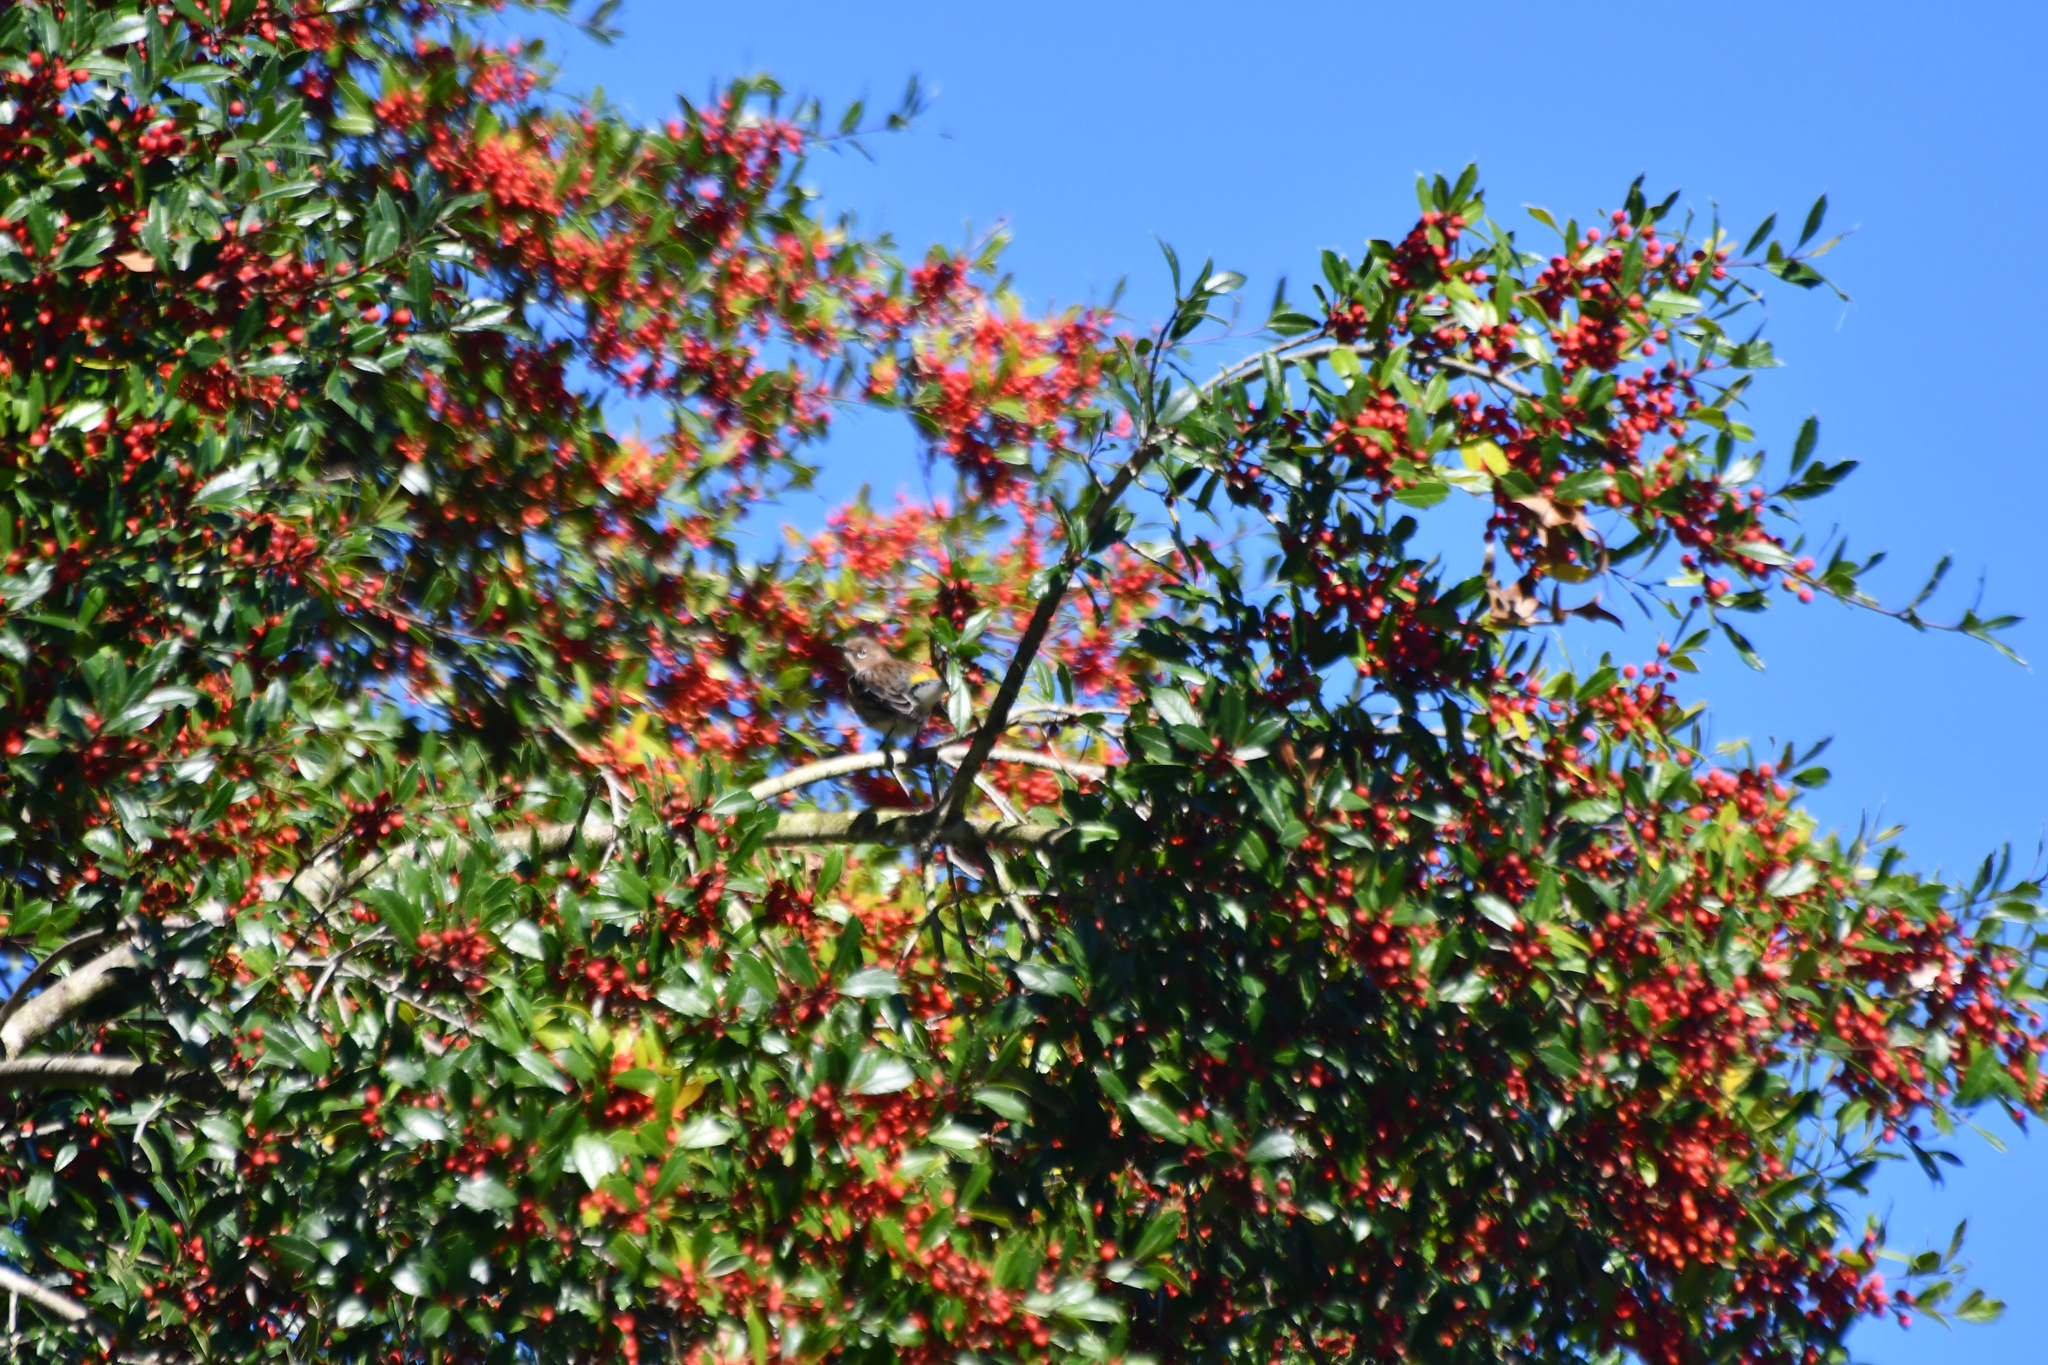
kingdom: Animalia
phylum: Chordata
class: Aves
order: Passeriformes
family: Parulidae
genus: Setophaga
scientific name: Setophaga coronata
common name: Myrtle warbler
